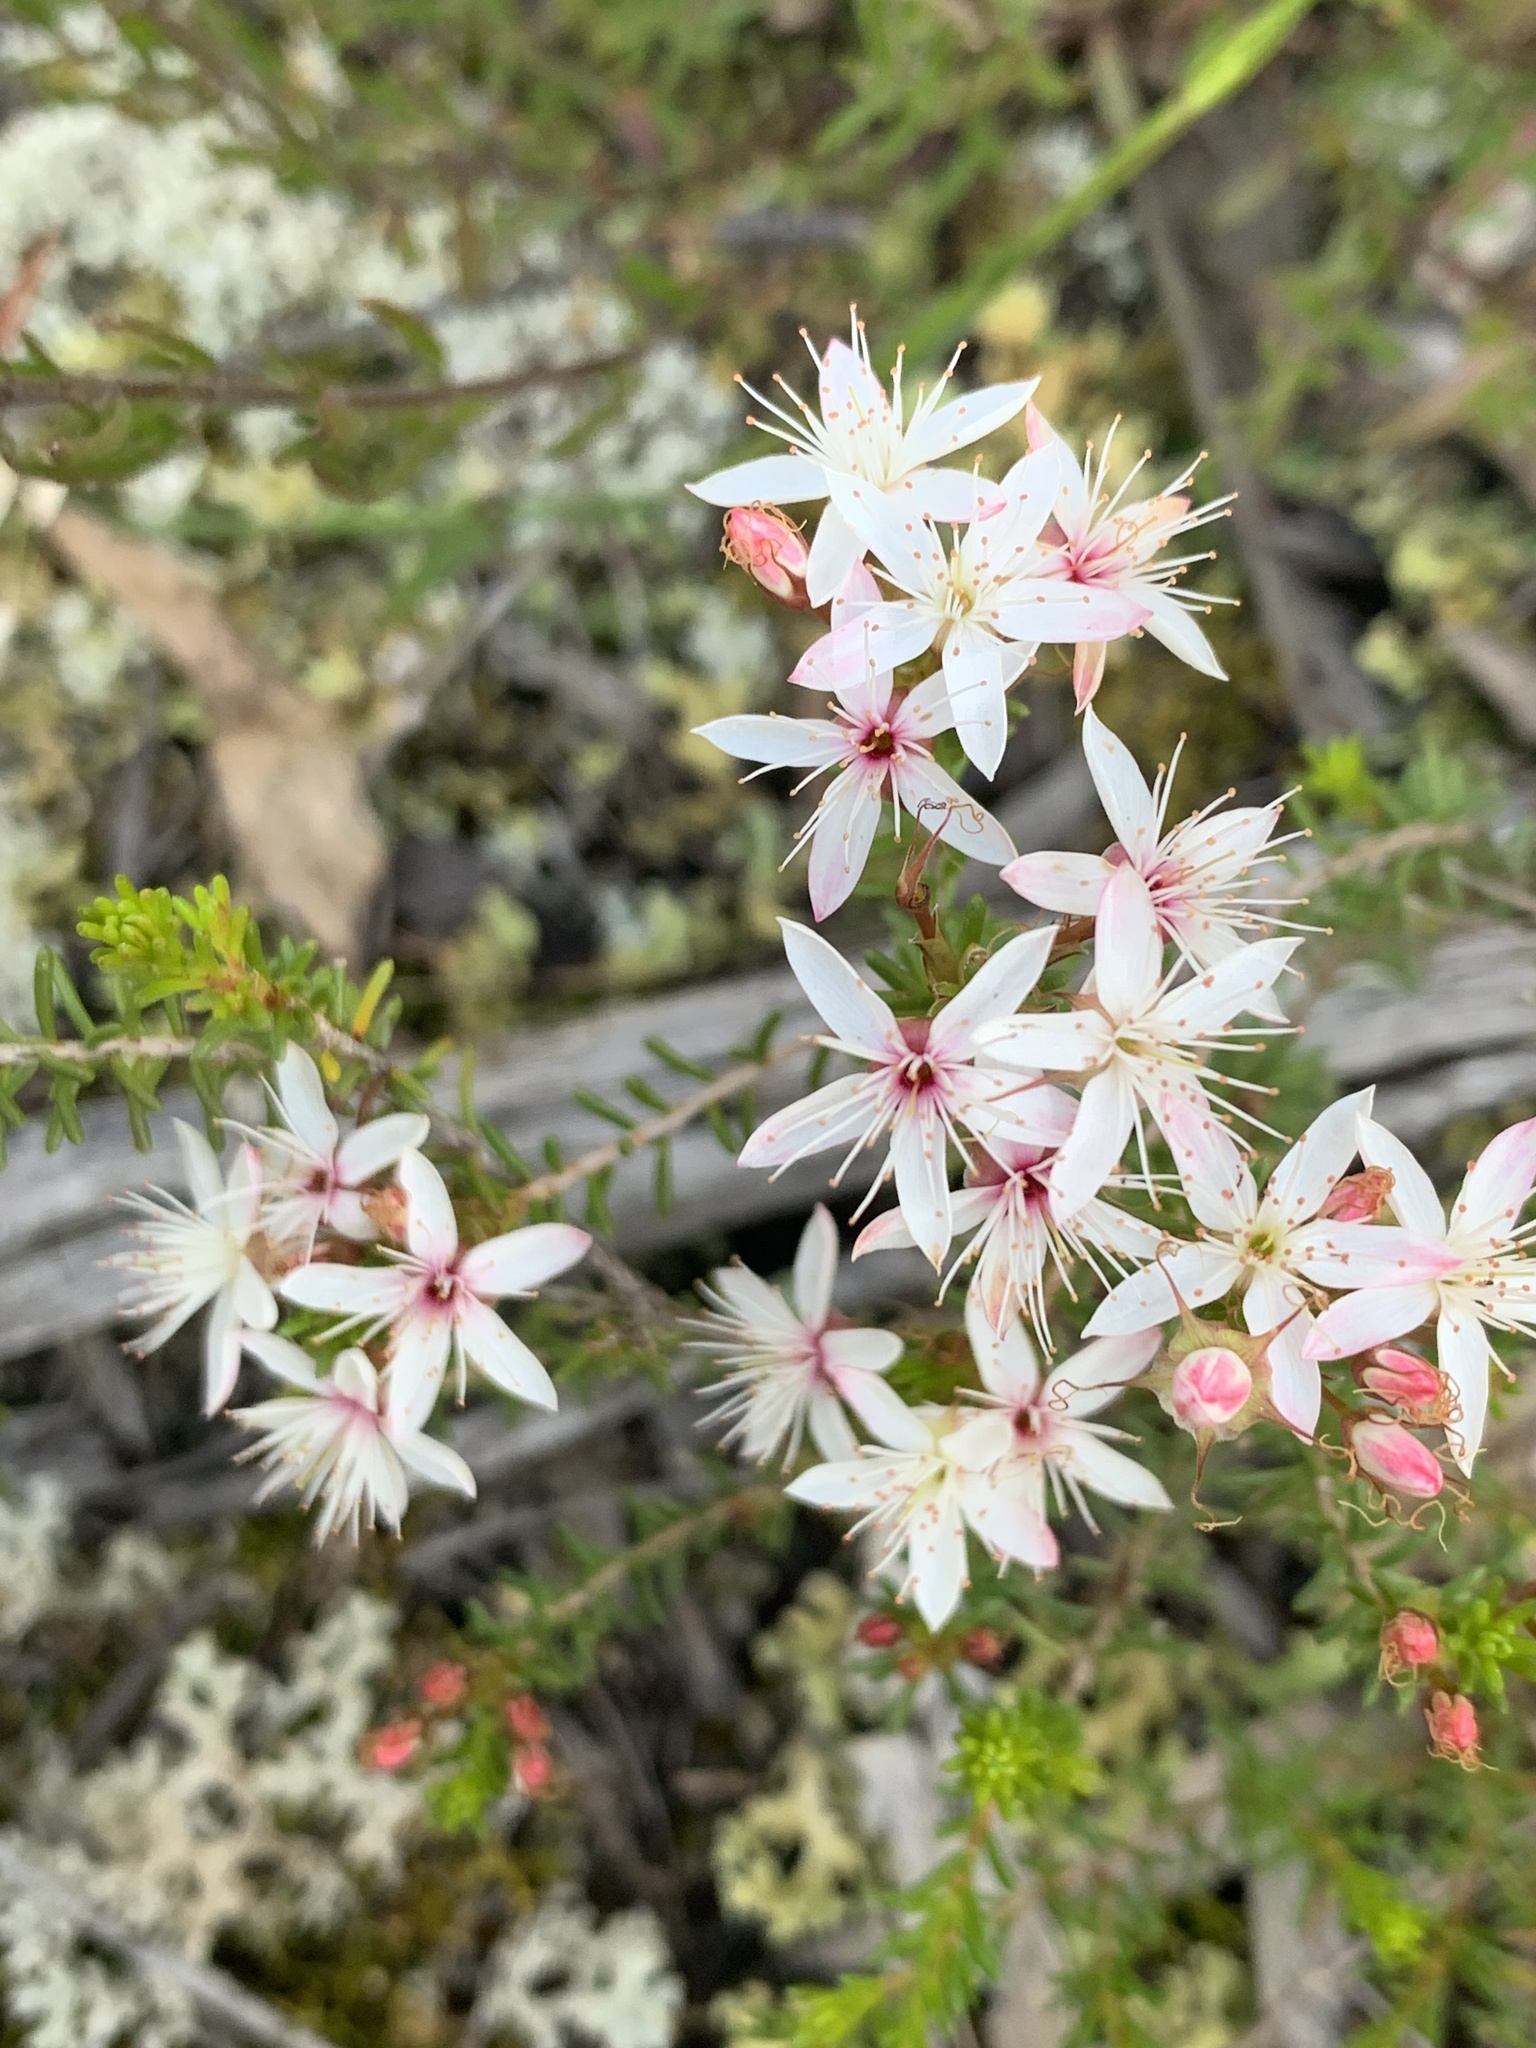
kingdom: Plantae
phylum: Tracheophyta
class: Magnoliopsida
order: Myrtales
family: Myrtaceae
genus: Calytrix
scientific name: Calytrix tetragona
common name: Common fringe myrtle
